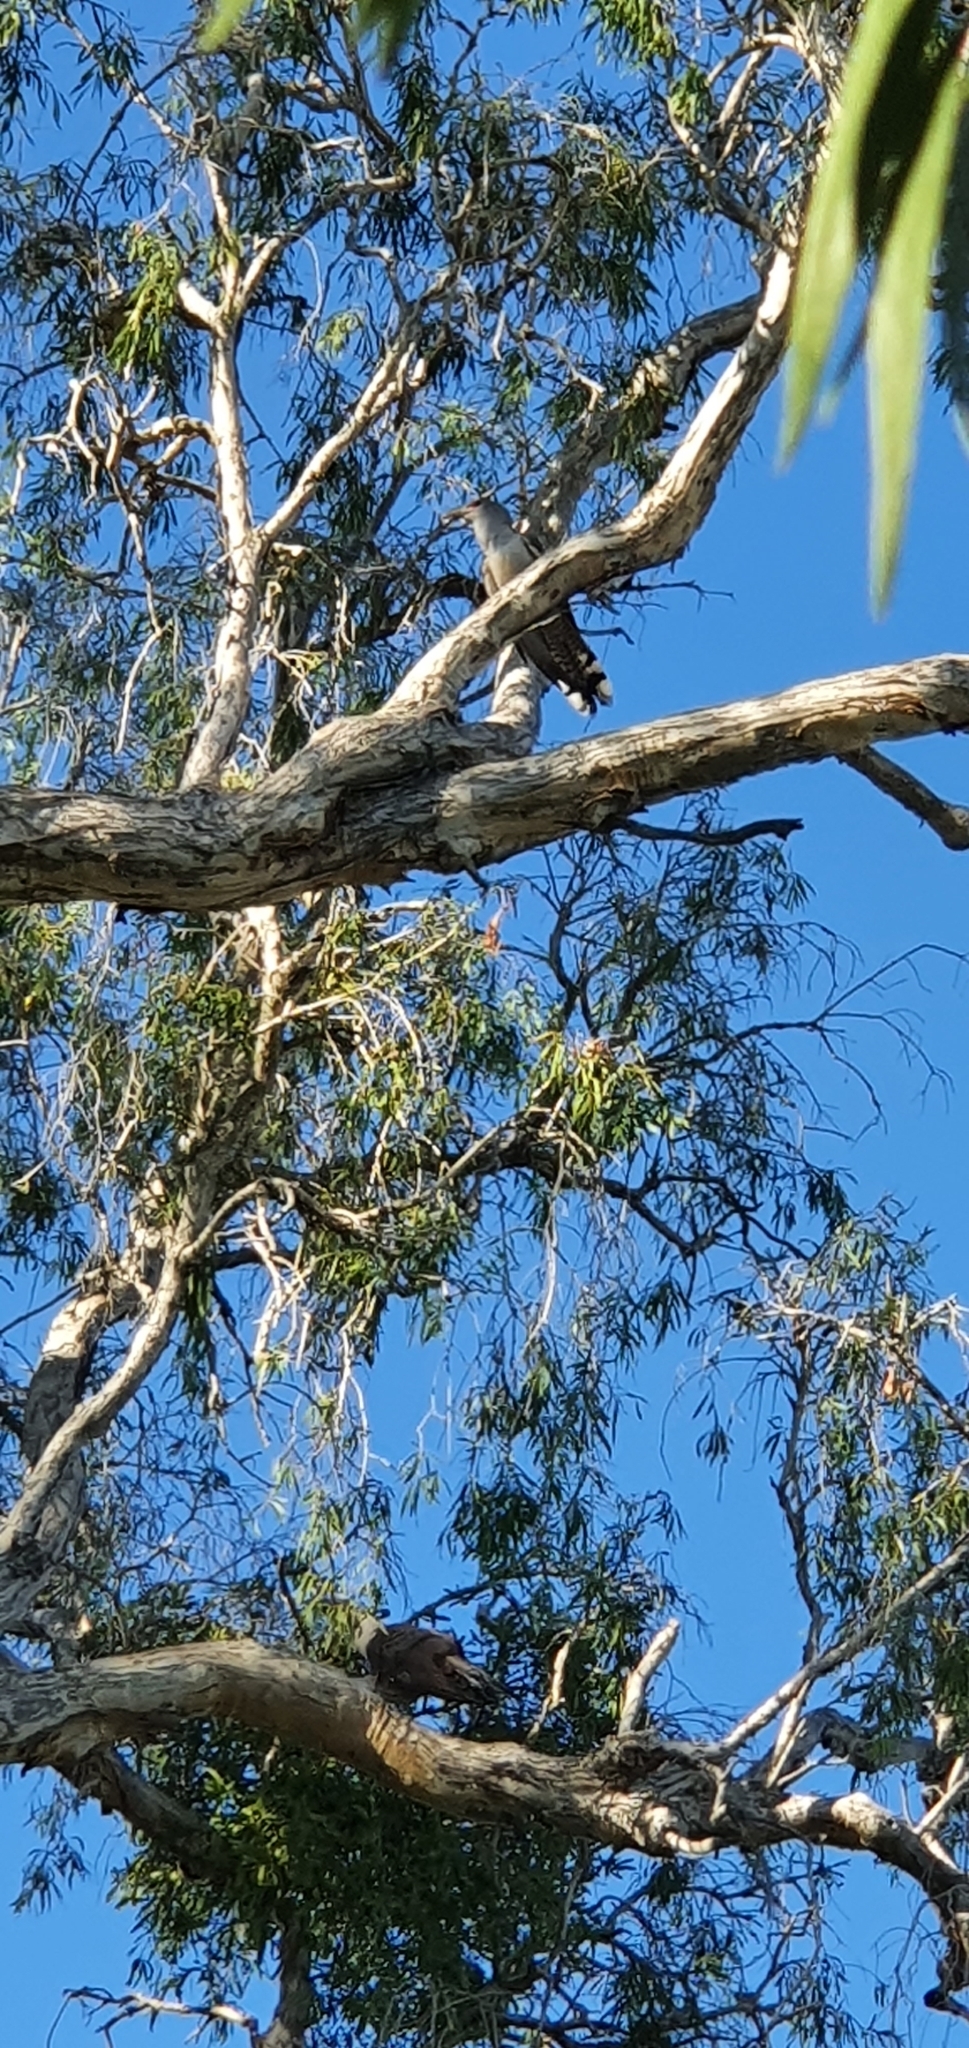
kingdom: Animalia
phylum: Chordata
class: Aves
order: Cuculiformes
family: Cuculidae
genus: Scythrops
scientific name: Scythrops novaehollandiae
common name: Channel-billed cuckoo
